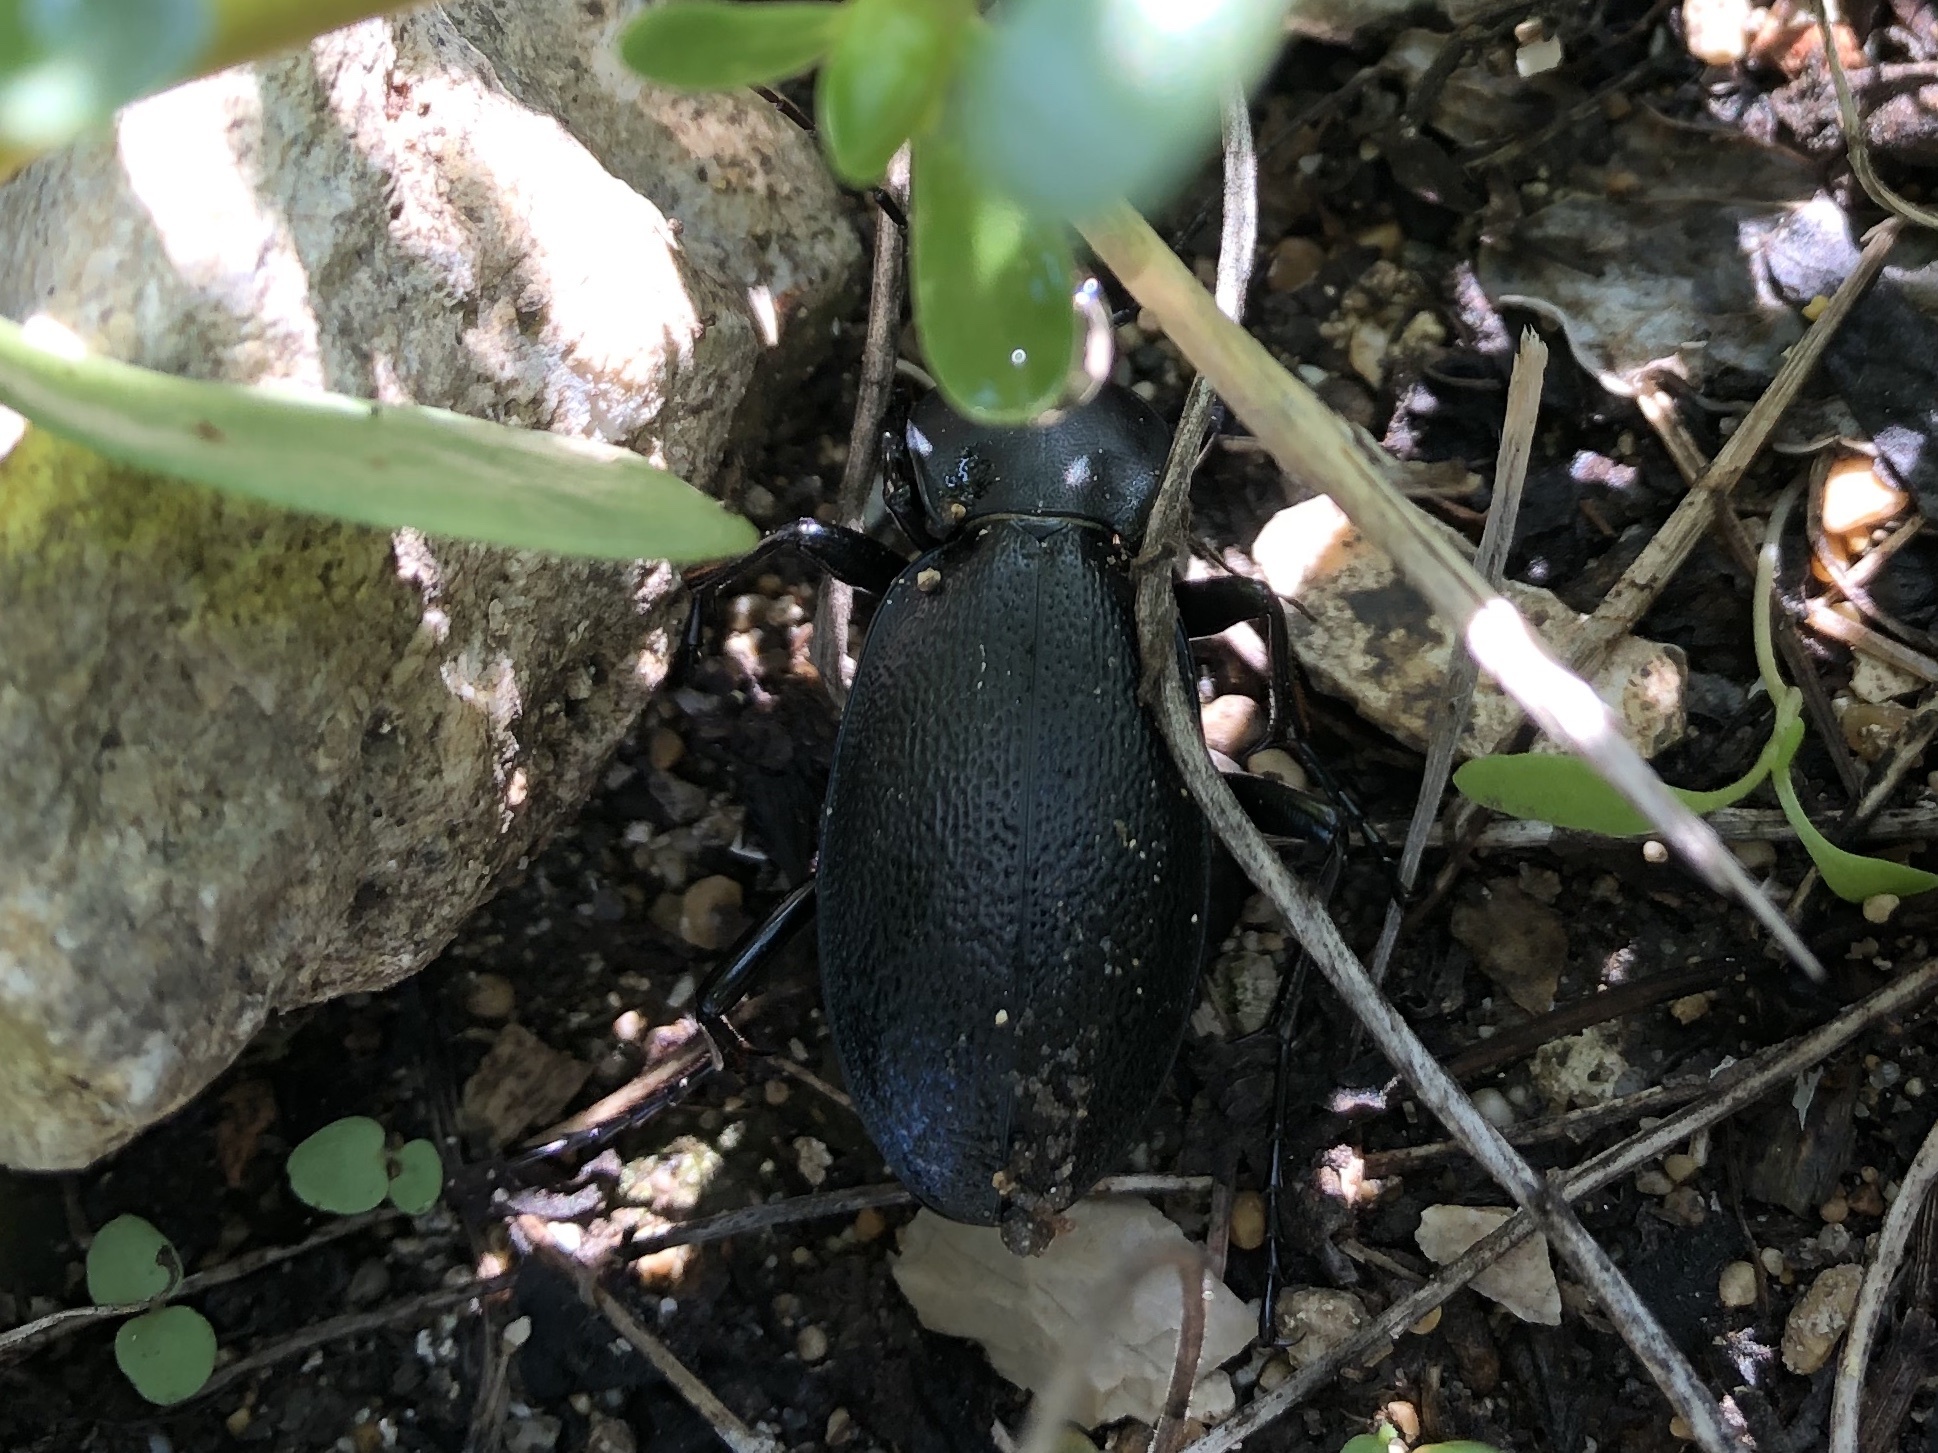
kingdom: Animalia
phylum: Arthropoda
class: Insecta
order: Coleoptera
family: Carabidae
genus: Carabus
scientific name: Carabus coriaceus
